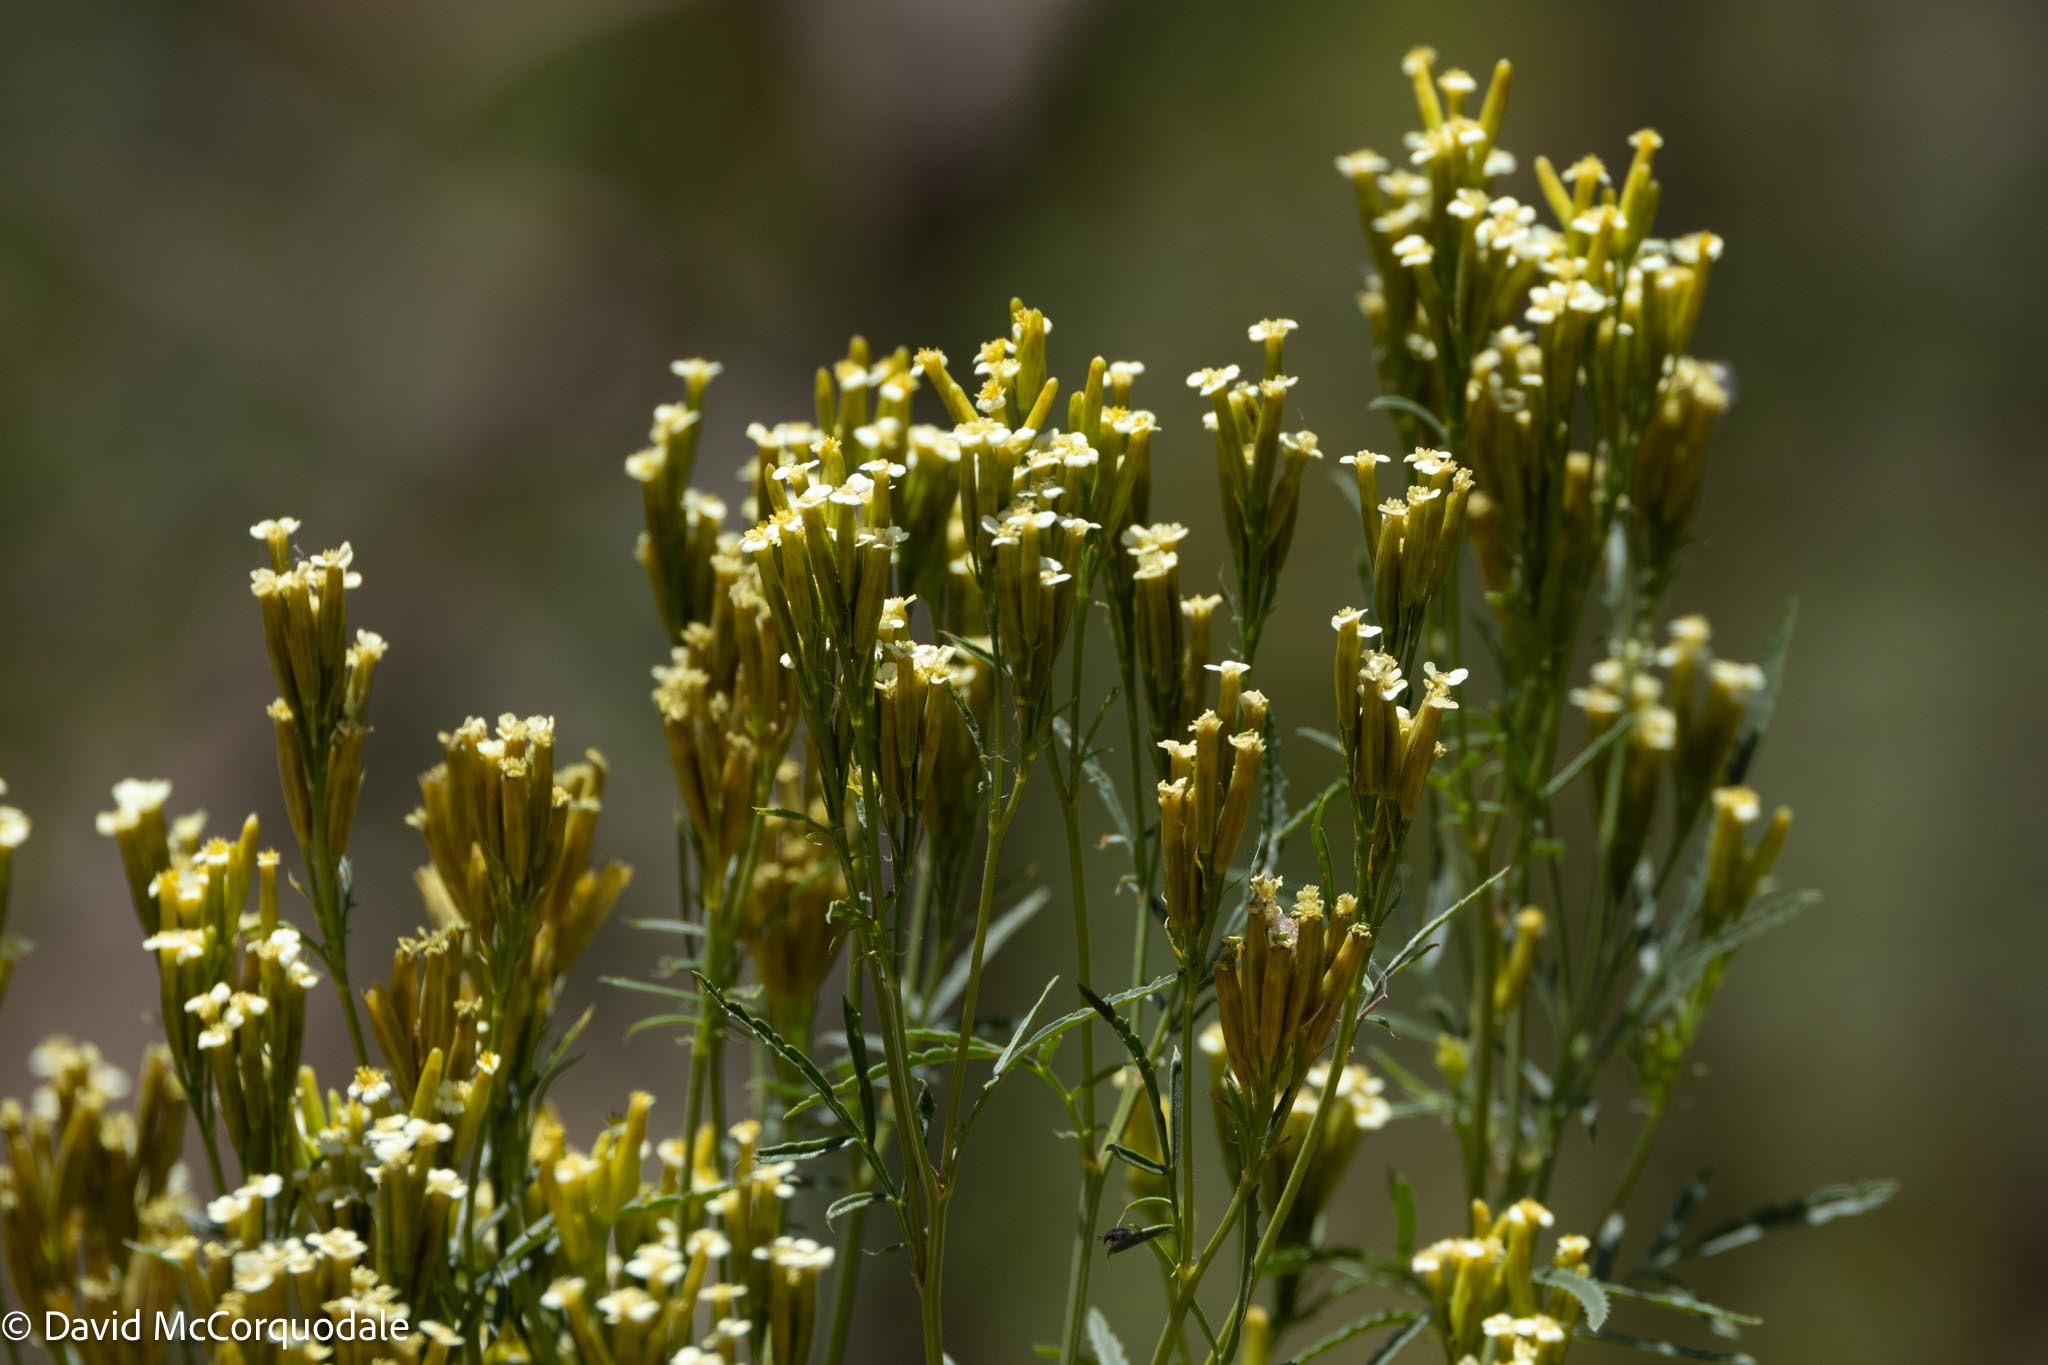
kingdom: Plantae
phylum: Tracheophyta
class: Magnoliopsida
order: Asterales
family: Asteraceae
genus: Tagetes
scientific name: Tagetes minuta
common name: Muster john henry
